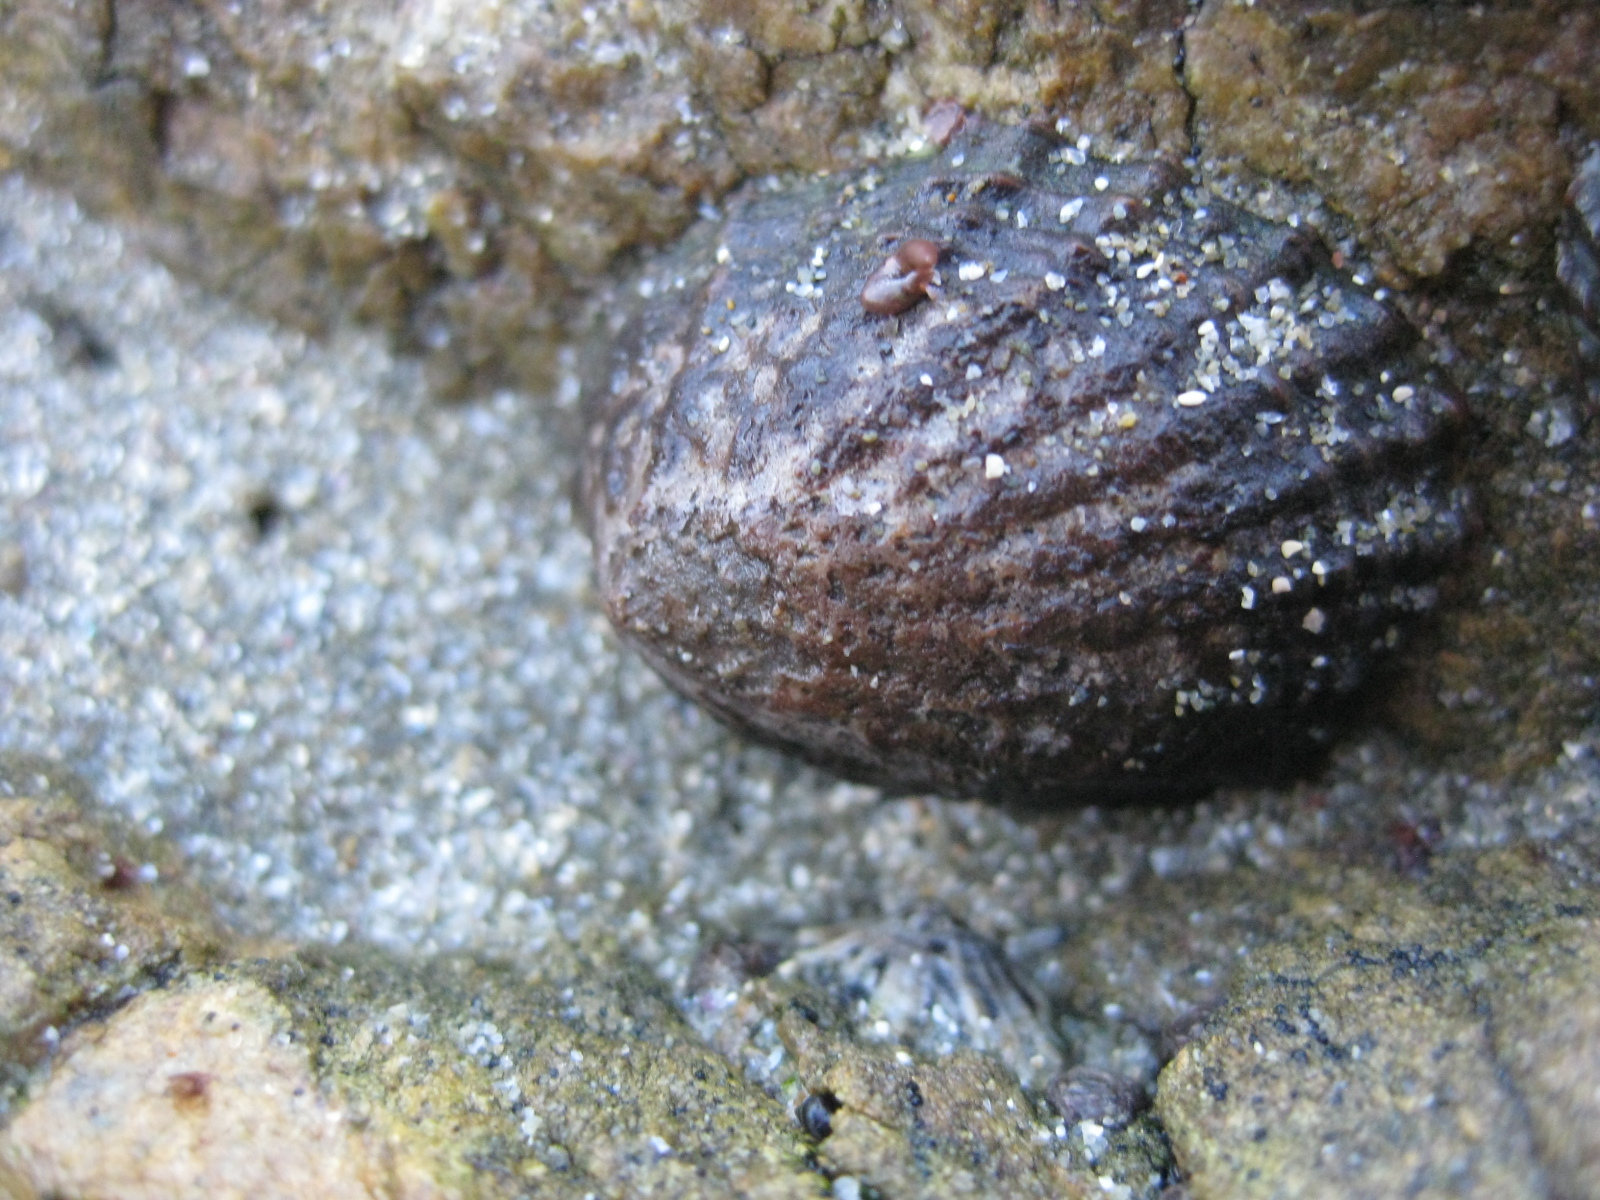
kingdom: Animalia
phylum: Mollusca
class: Gastropoda
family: Nacellidae
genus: Cellana
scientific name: Cellana denticulata
